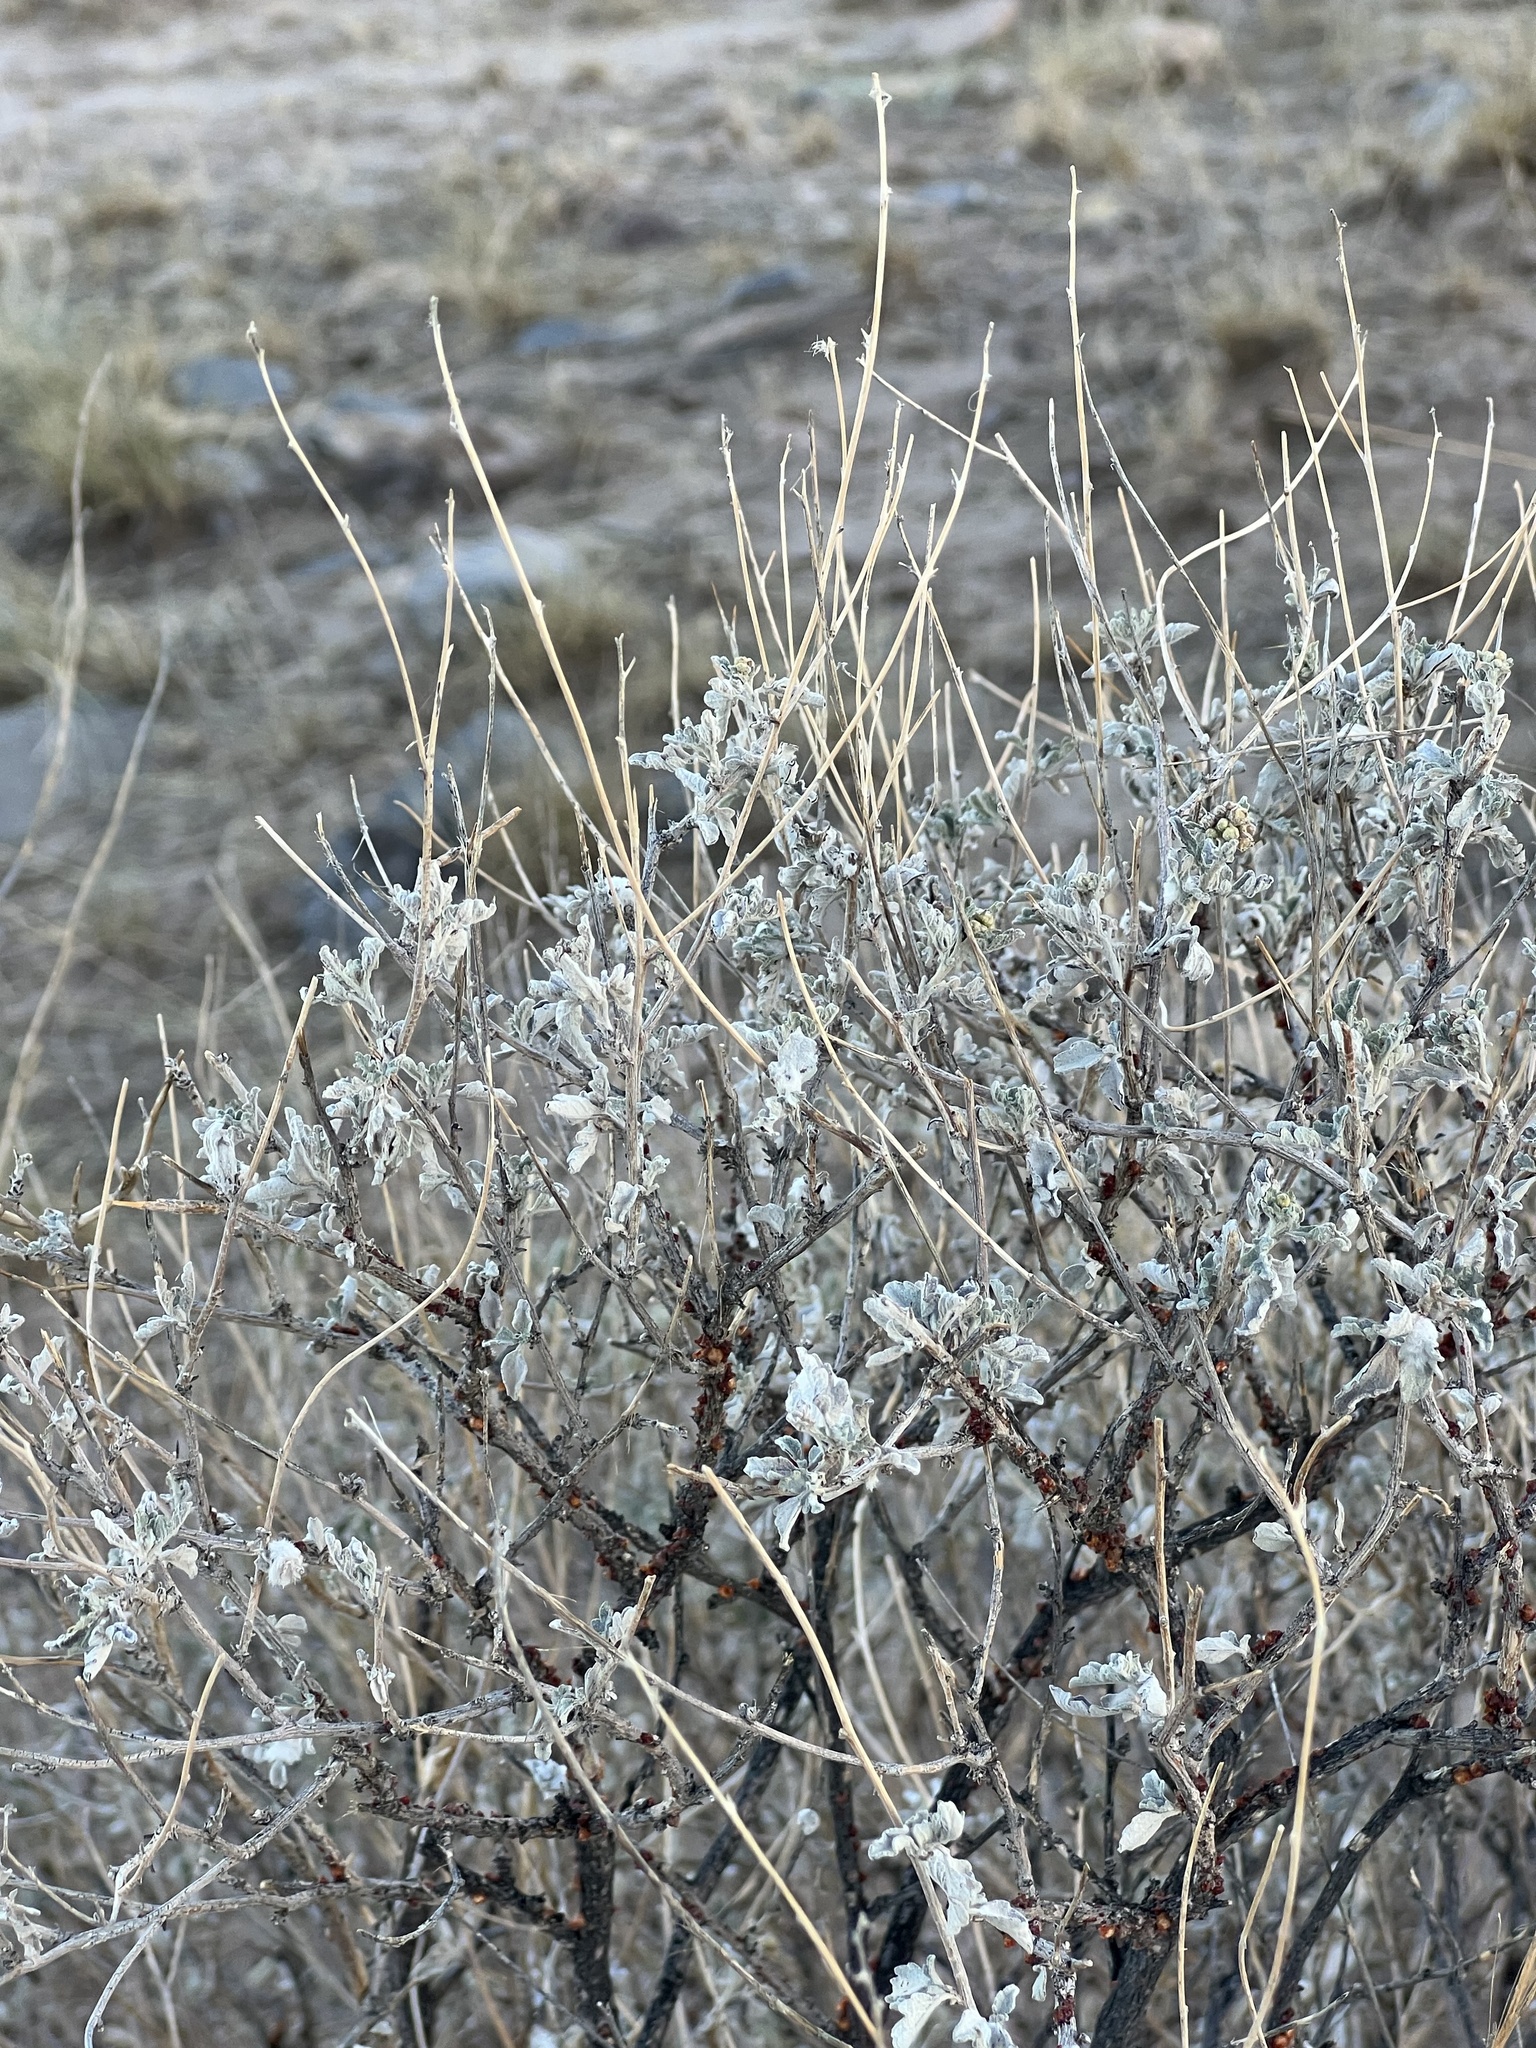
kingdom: Plantae
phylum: Tracheophyta
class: Magnoliopsida
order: Asterales
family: Asteraceae
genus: Parthenium
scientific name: Parthenium incanum
